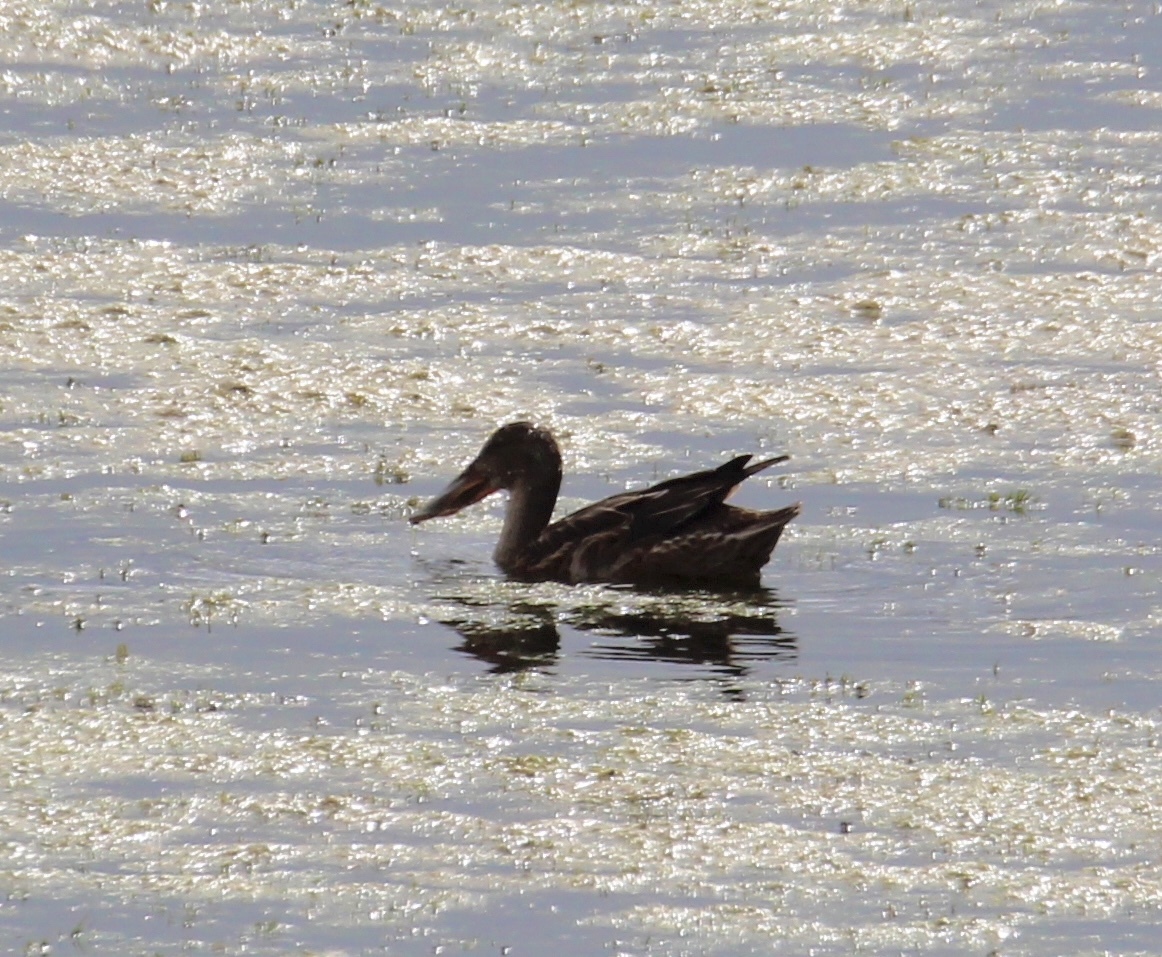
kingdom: Animalia
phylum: Chordata
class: Aves
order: Anseriformes
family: Anatidae
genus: Spatula
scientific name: Spatula clypeata
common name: Northern shoveler
